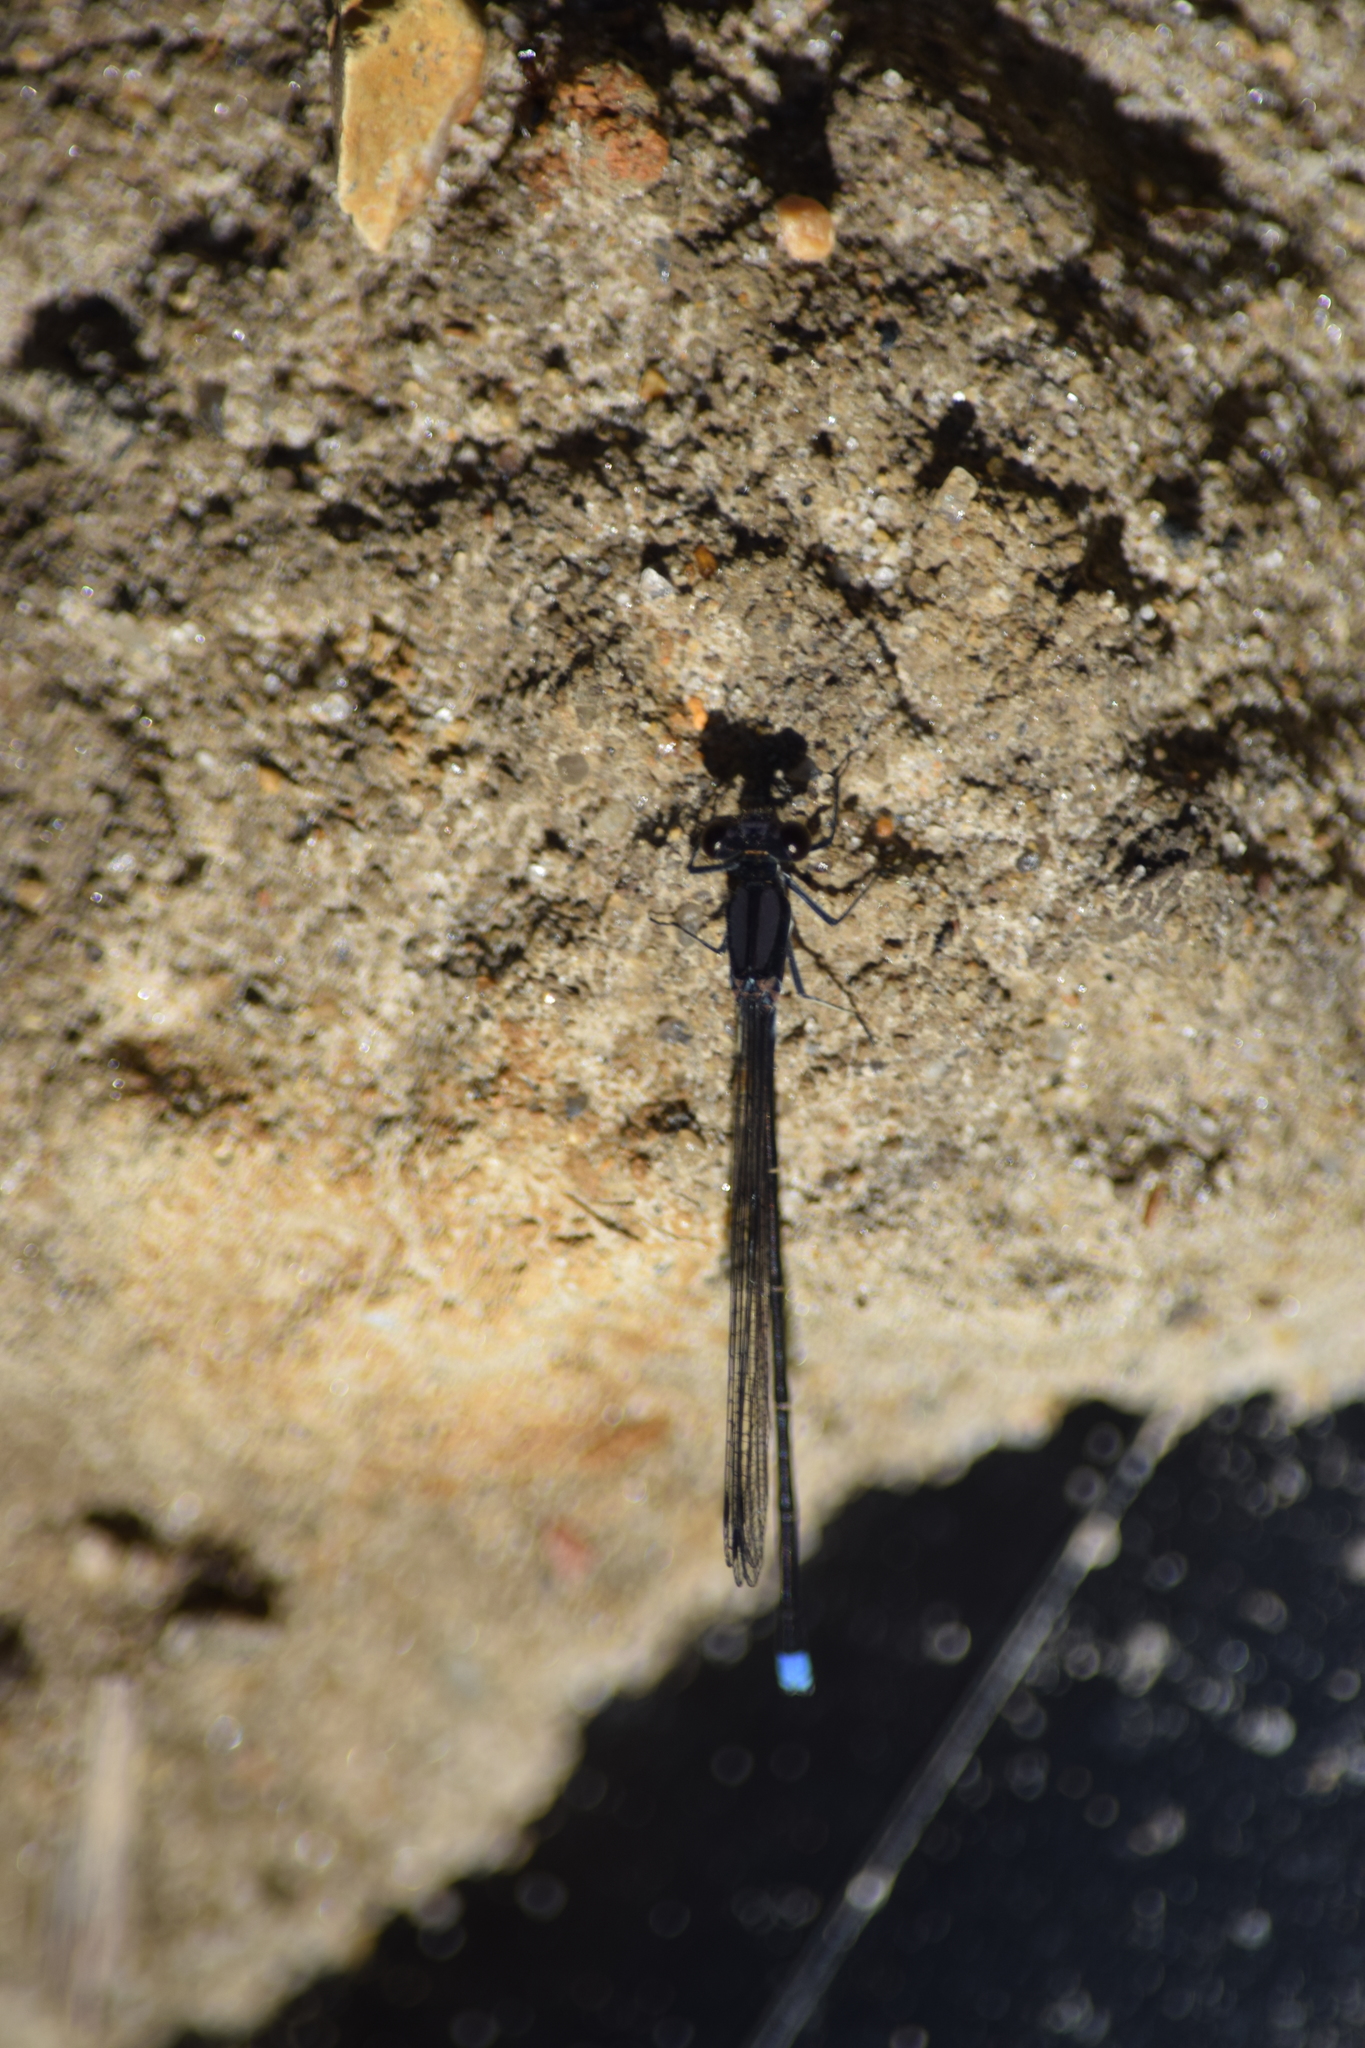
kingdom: Animalia
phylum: Arthropoda
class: Insecta
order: Odonata
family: Coenagrionidae
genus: Argia
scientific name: Argia tibialis
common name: Blue-tipped dancer
